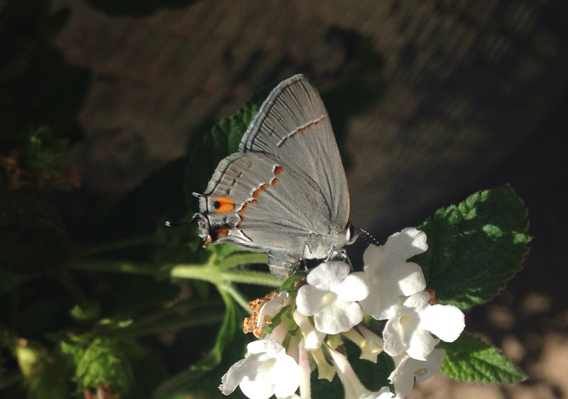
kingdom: Animalia
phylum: Arthropoda
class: Insecta
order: Lepidoptera
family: Lycaenidae
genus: Strymon
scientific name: Strymon melinus
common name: Gray hairstreak
